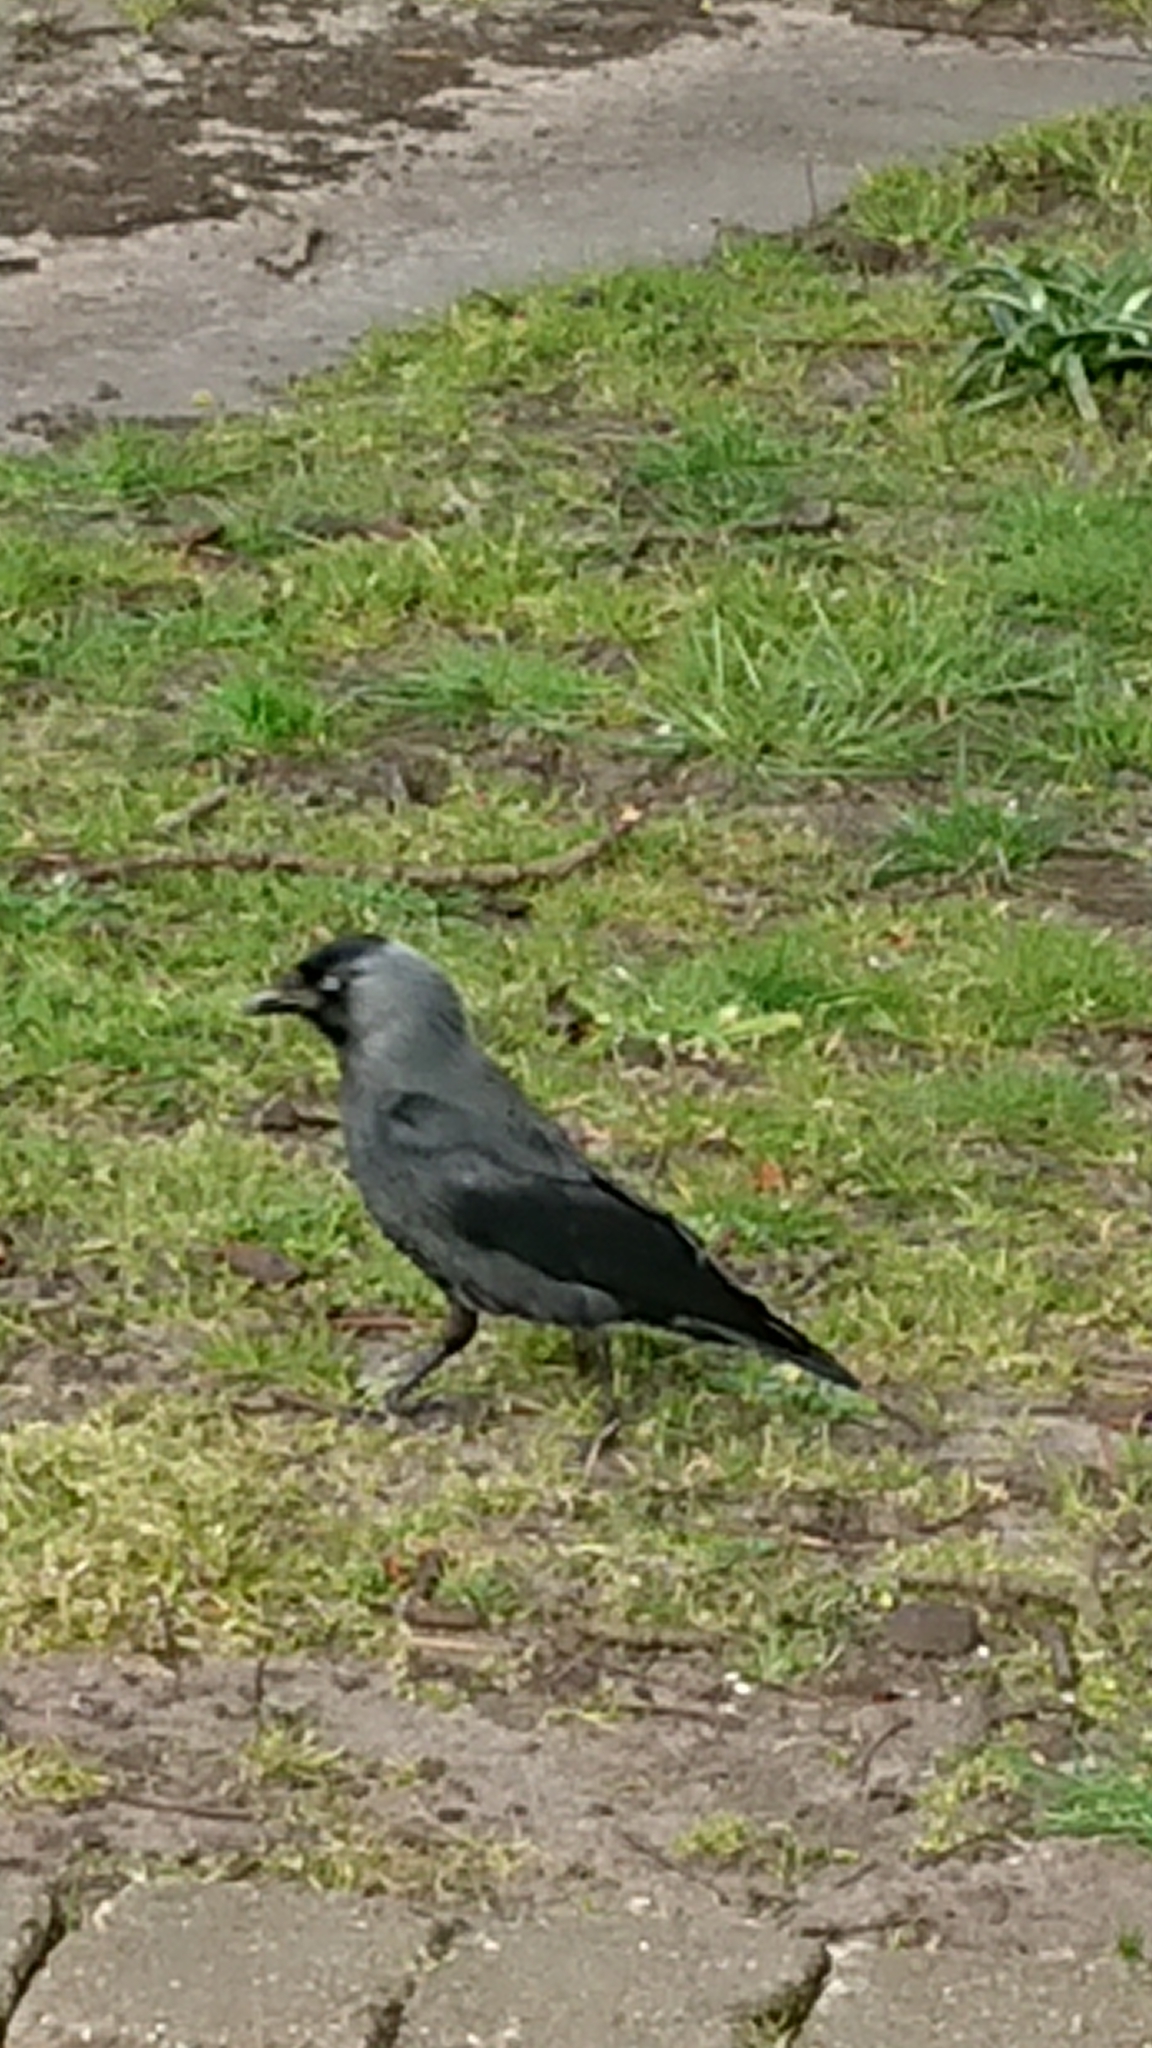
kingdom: Animalia
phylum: Chordata
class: Aves
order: Passeriformes
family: Corvidae
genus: Coloeus
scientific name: Coloeus monedula
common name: Western jackdaw
